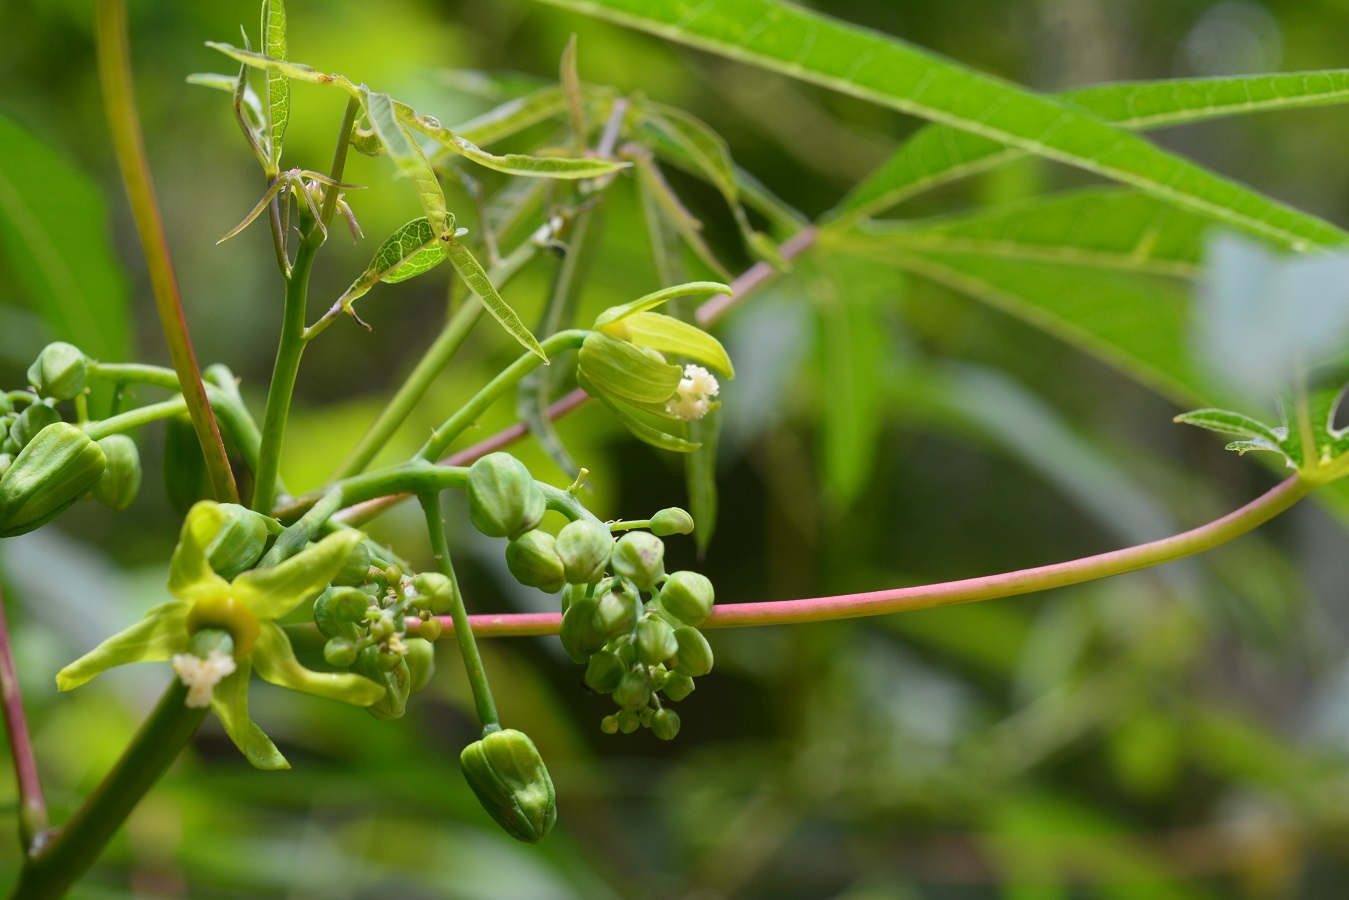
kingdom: Plantae
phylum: Tracheophyta
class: Magnoliopsida
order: Malpighiales
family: Euphorbiaceae
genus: Manihot
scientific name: Manihot rhomboidea
